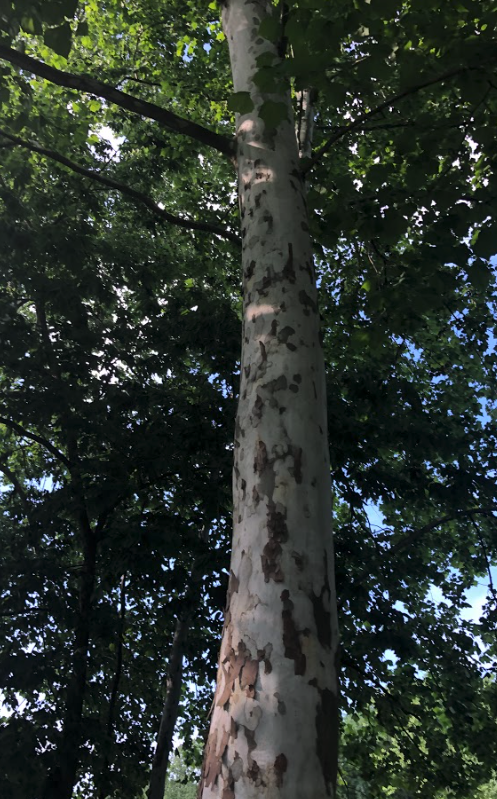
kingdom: Plantae
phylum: Tracheophyta
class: Magnoliopsida
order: Proteales
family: Platanaceae
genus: Platanus
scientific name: Platanus occidentalis
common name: American sycamore
